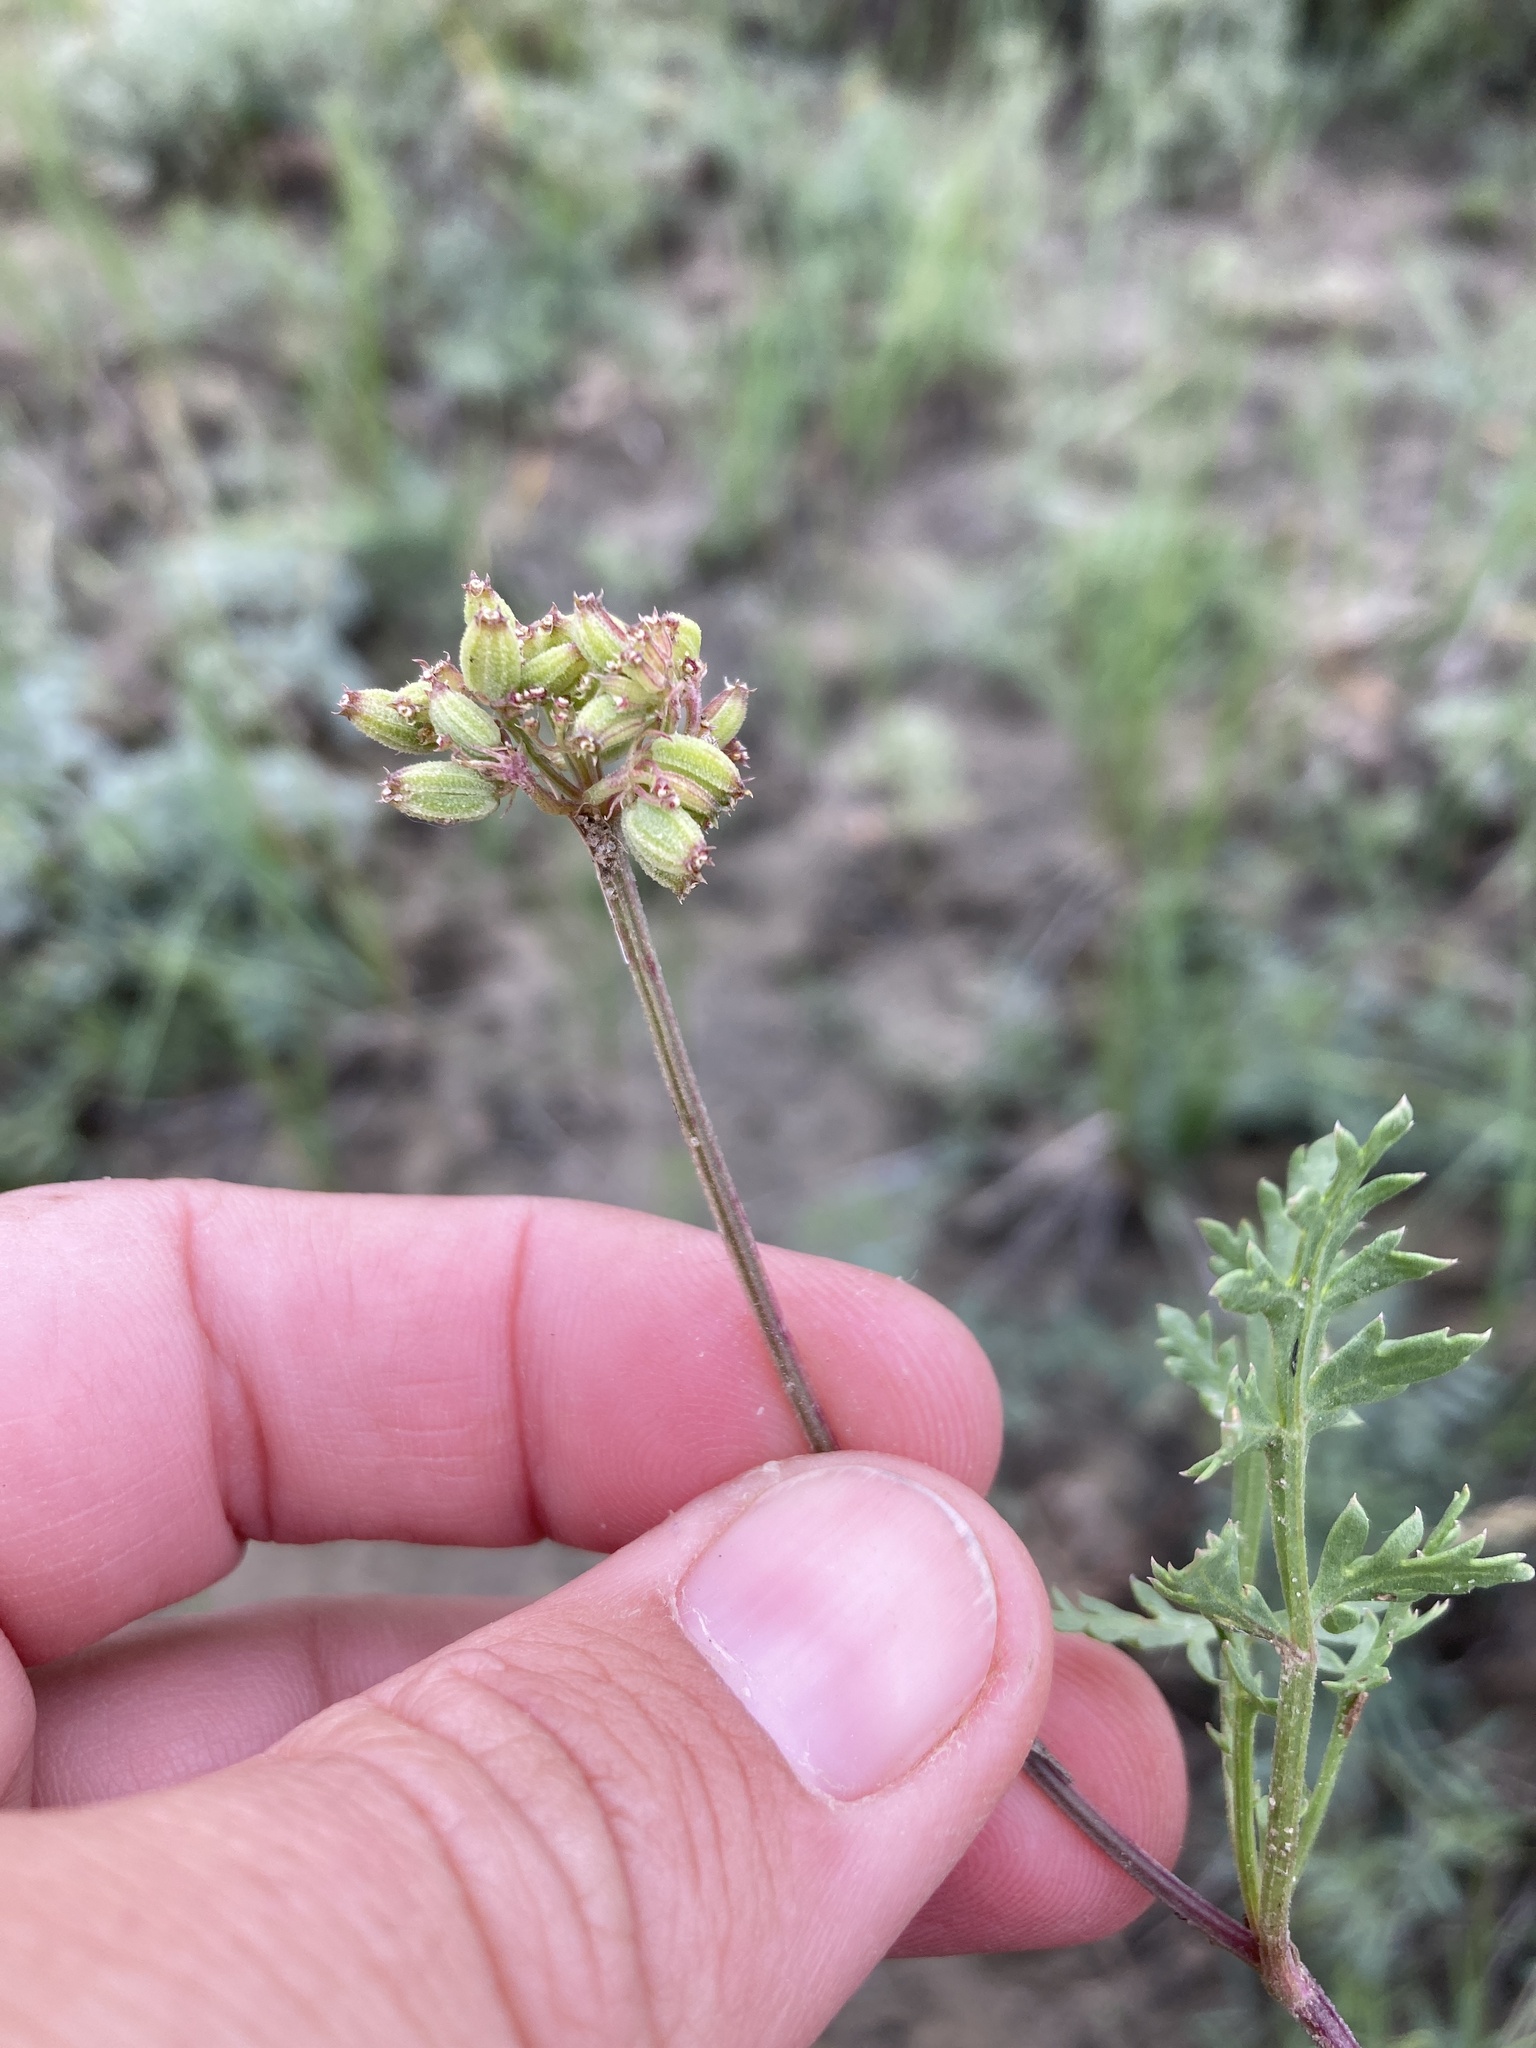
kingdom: Plantae
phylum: Tracheophyta
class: Magnoliopsida
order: Apiales
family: Apiaceae
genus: Musineon
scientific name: Musineon divaricatum
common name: Plains musineon
